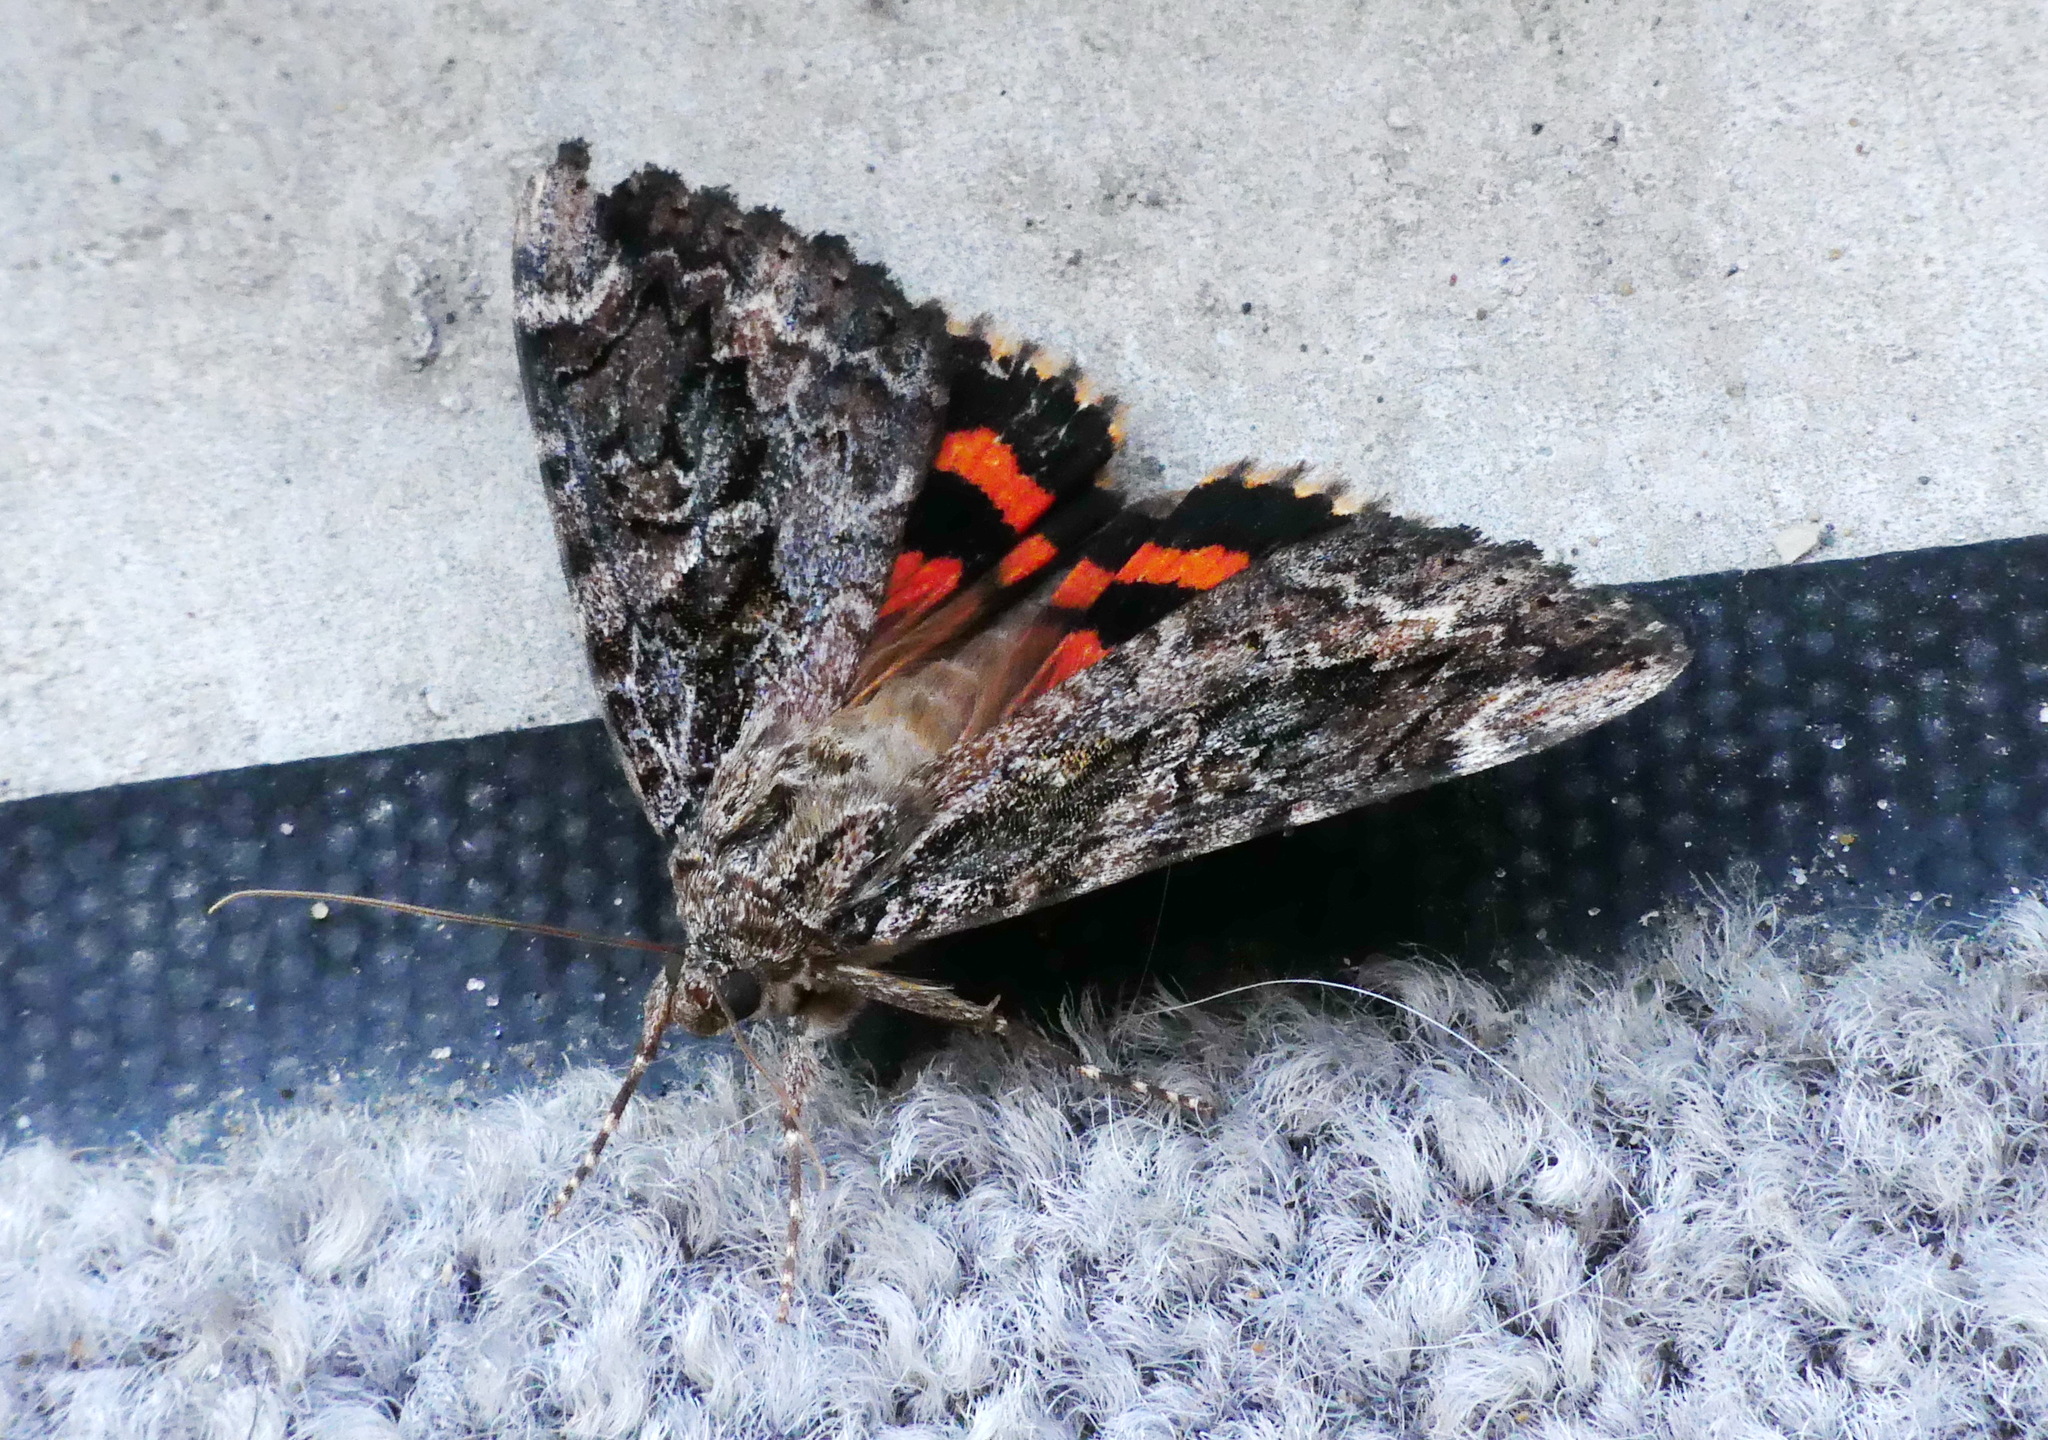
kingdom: Animalia
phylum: Arthropoda
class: Insecta
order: Lepidoptera
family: Erebidae
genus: Catocala
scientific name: Catocala innubens
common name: Betrothed underwing
